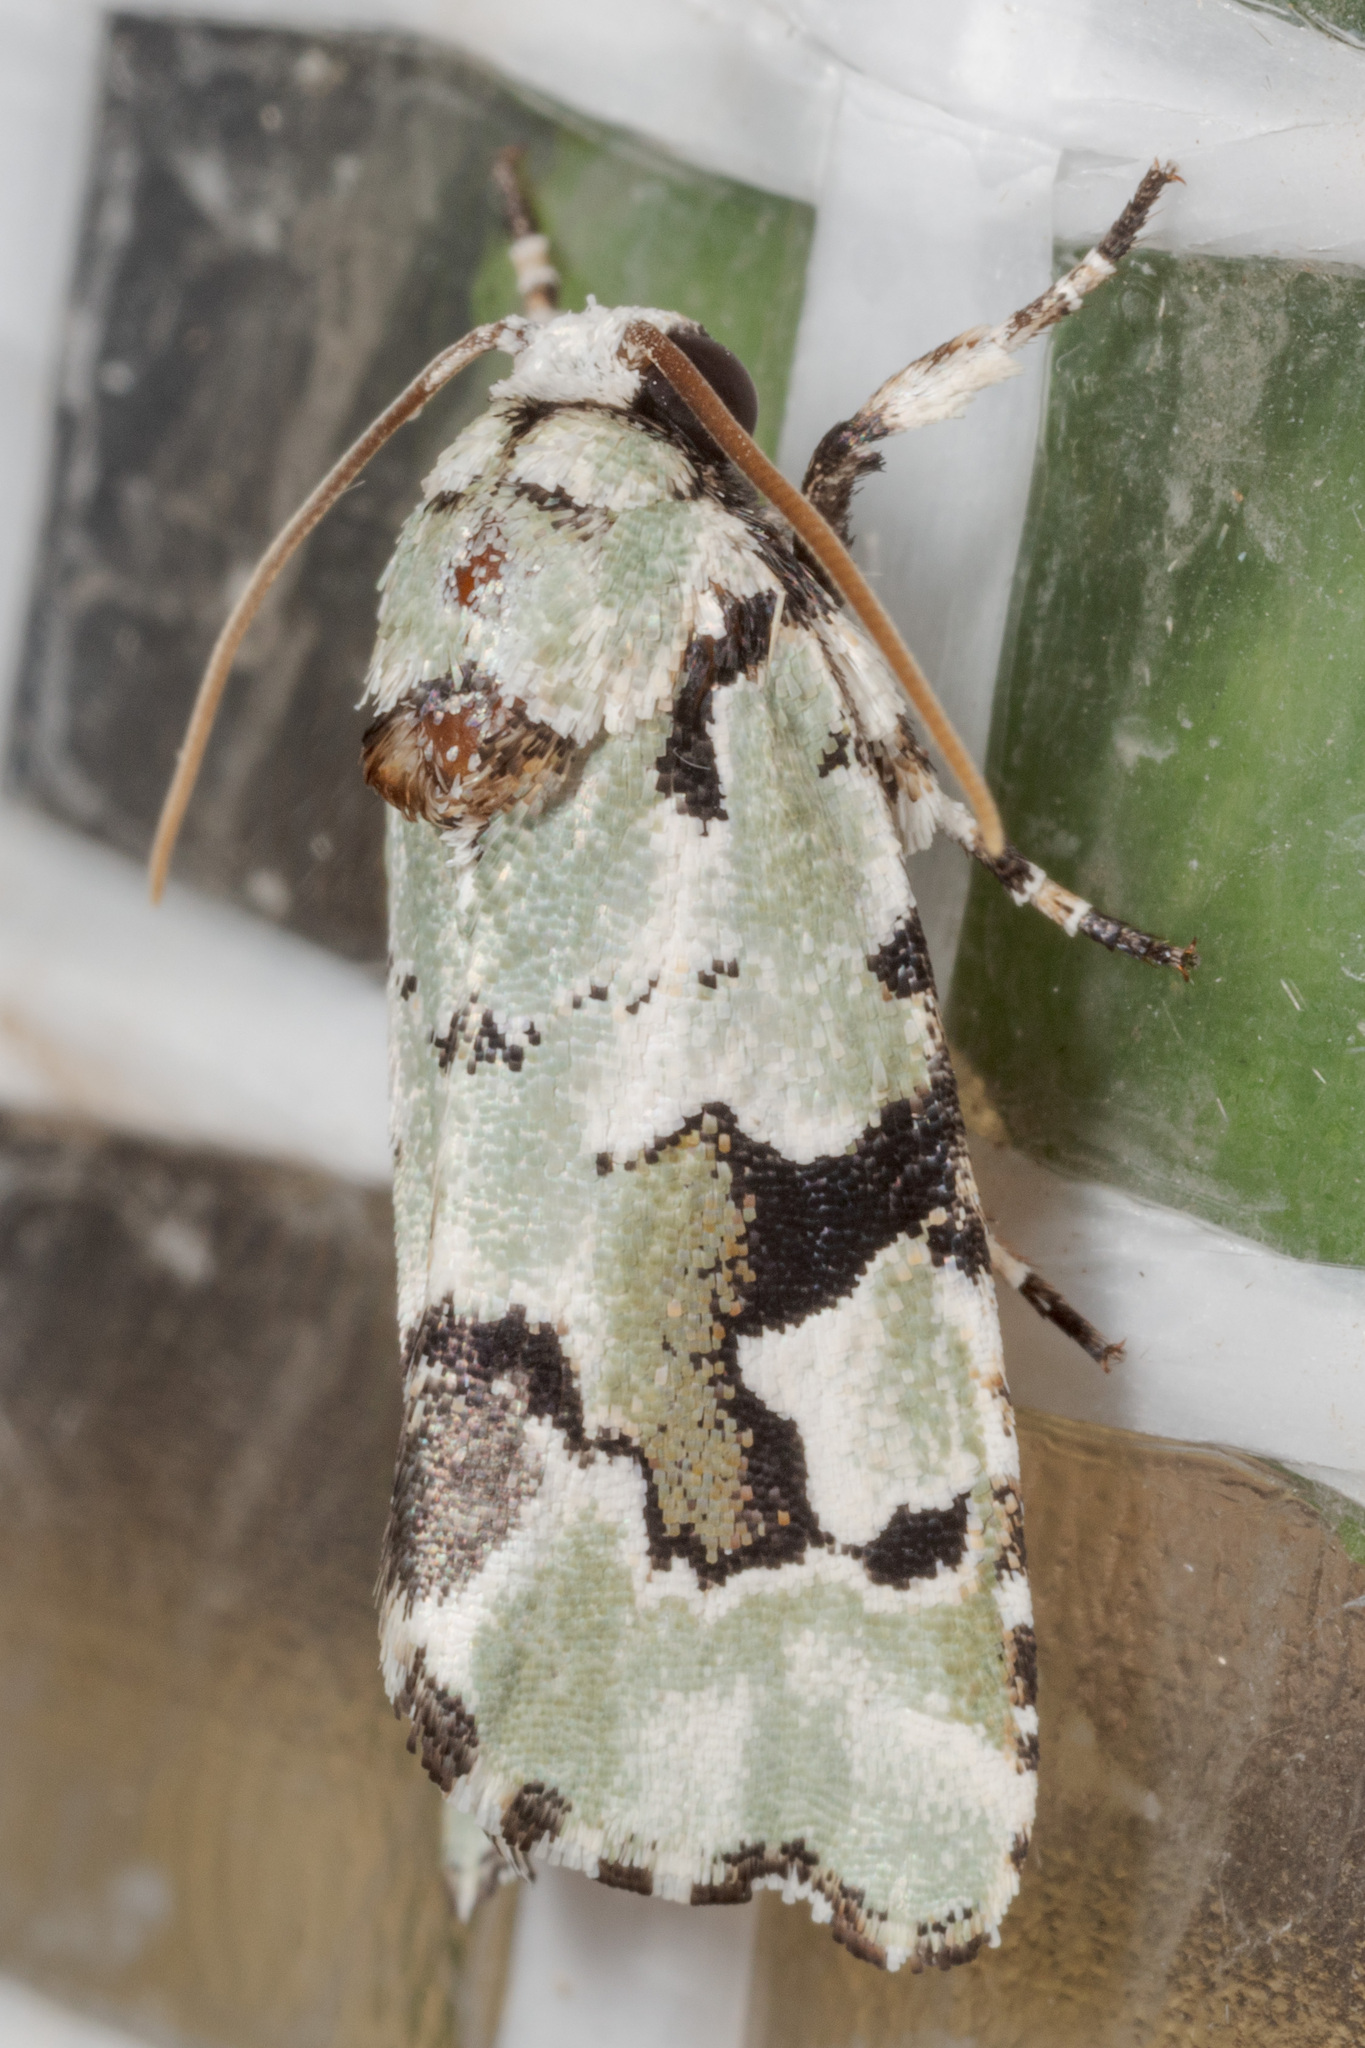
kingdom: Animalia
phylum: Arthropoda
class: Insecta
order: Lepidoptera
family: Noctuidae
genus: Emarginea
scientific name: Emarginea percara
